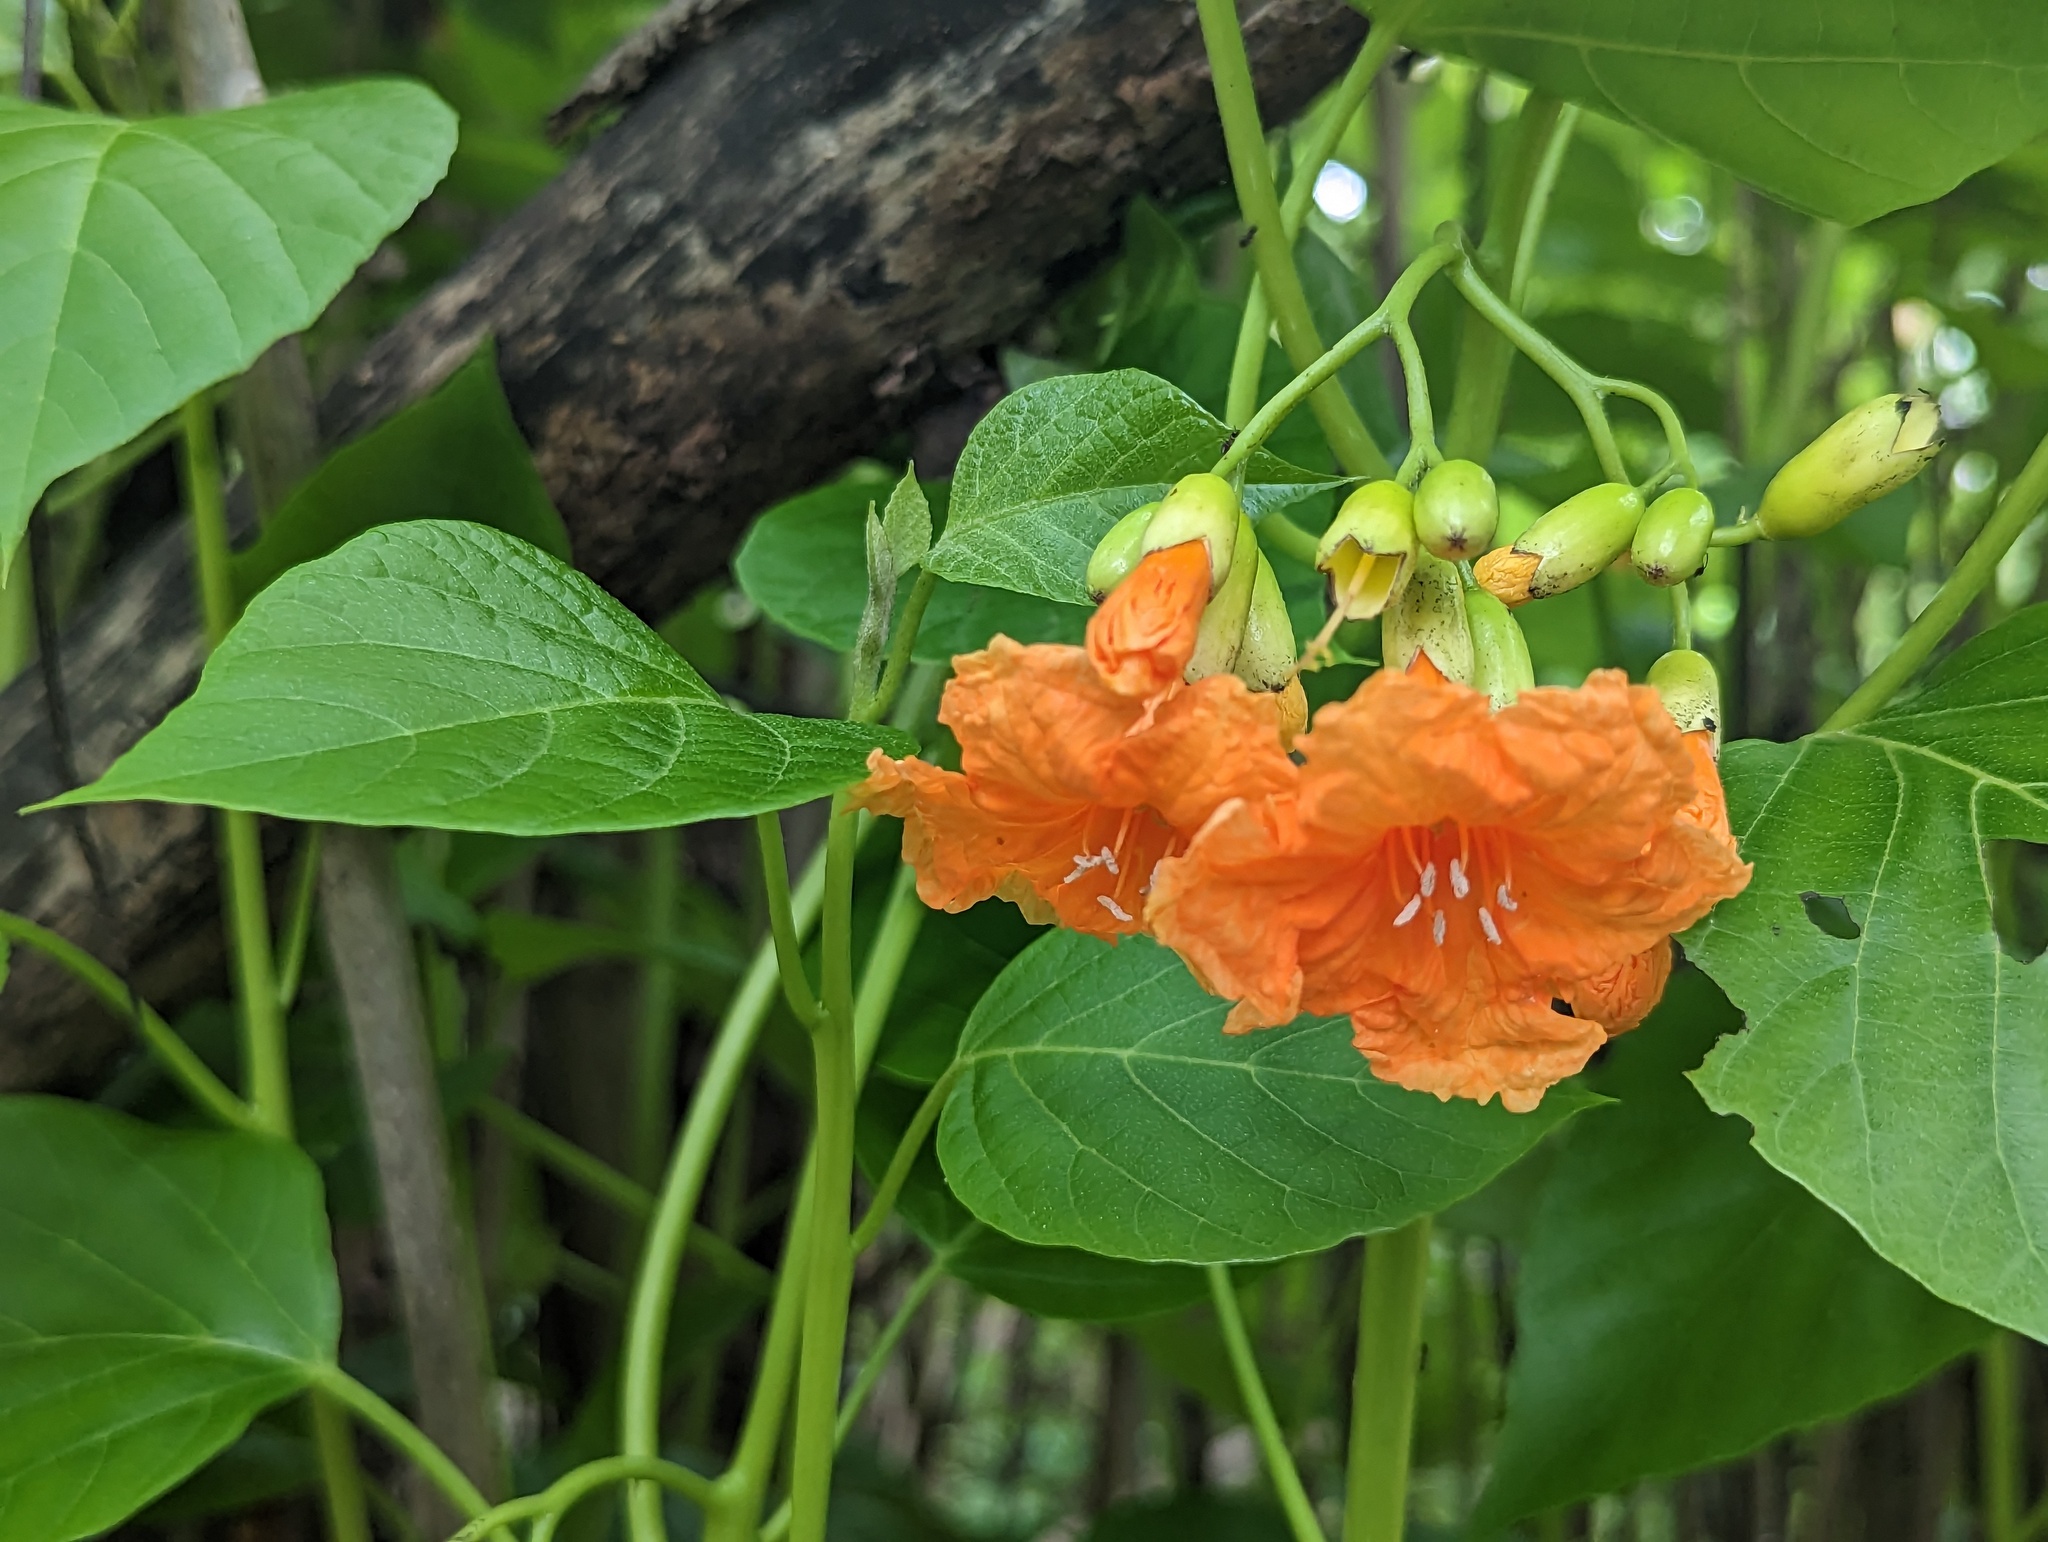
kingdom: Plantae
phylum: Tracheophyta
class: Magnoliopsida
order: Boraginales
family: Cordiaceae
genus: Cordia
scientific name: Cordia subcordata
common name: Mareer
